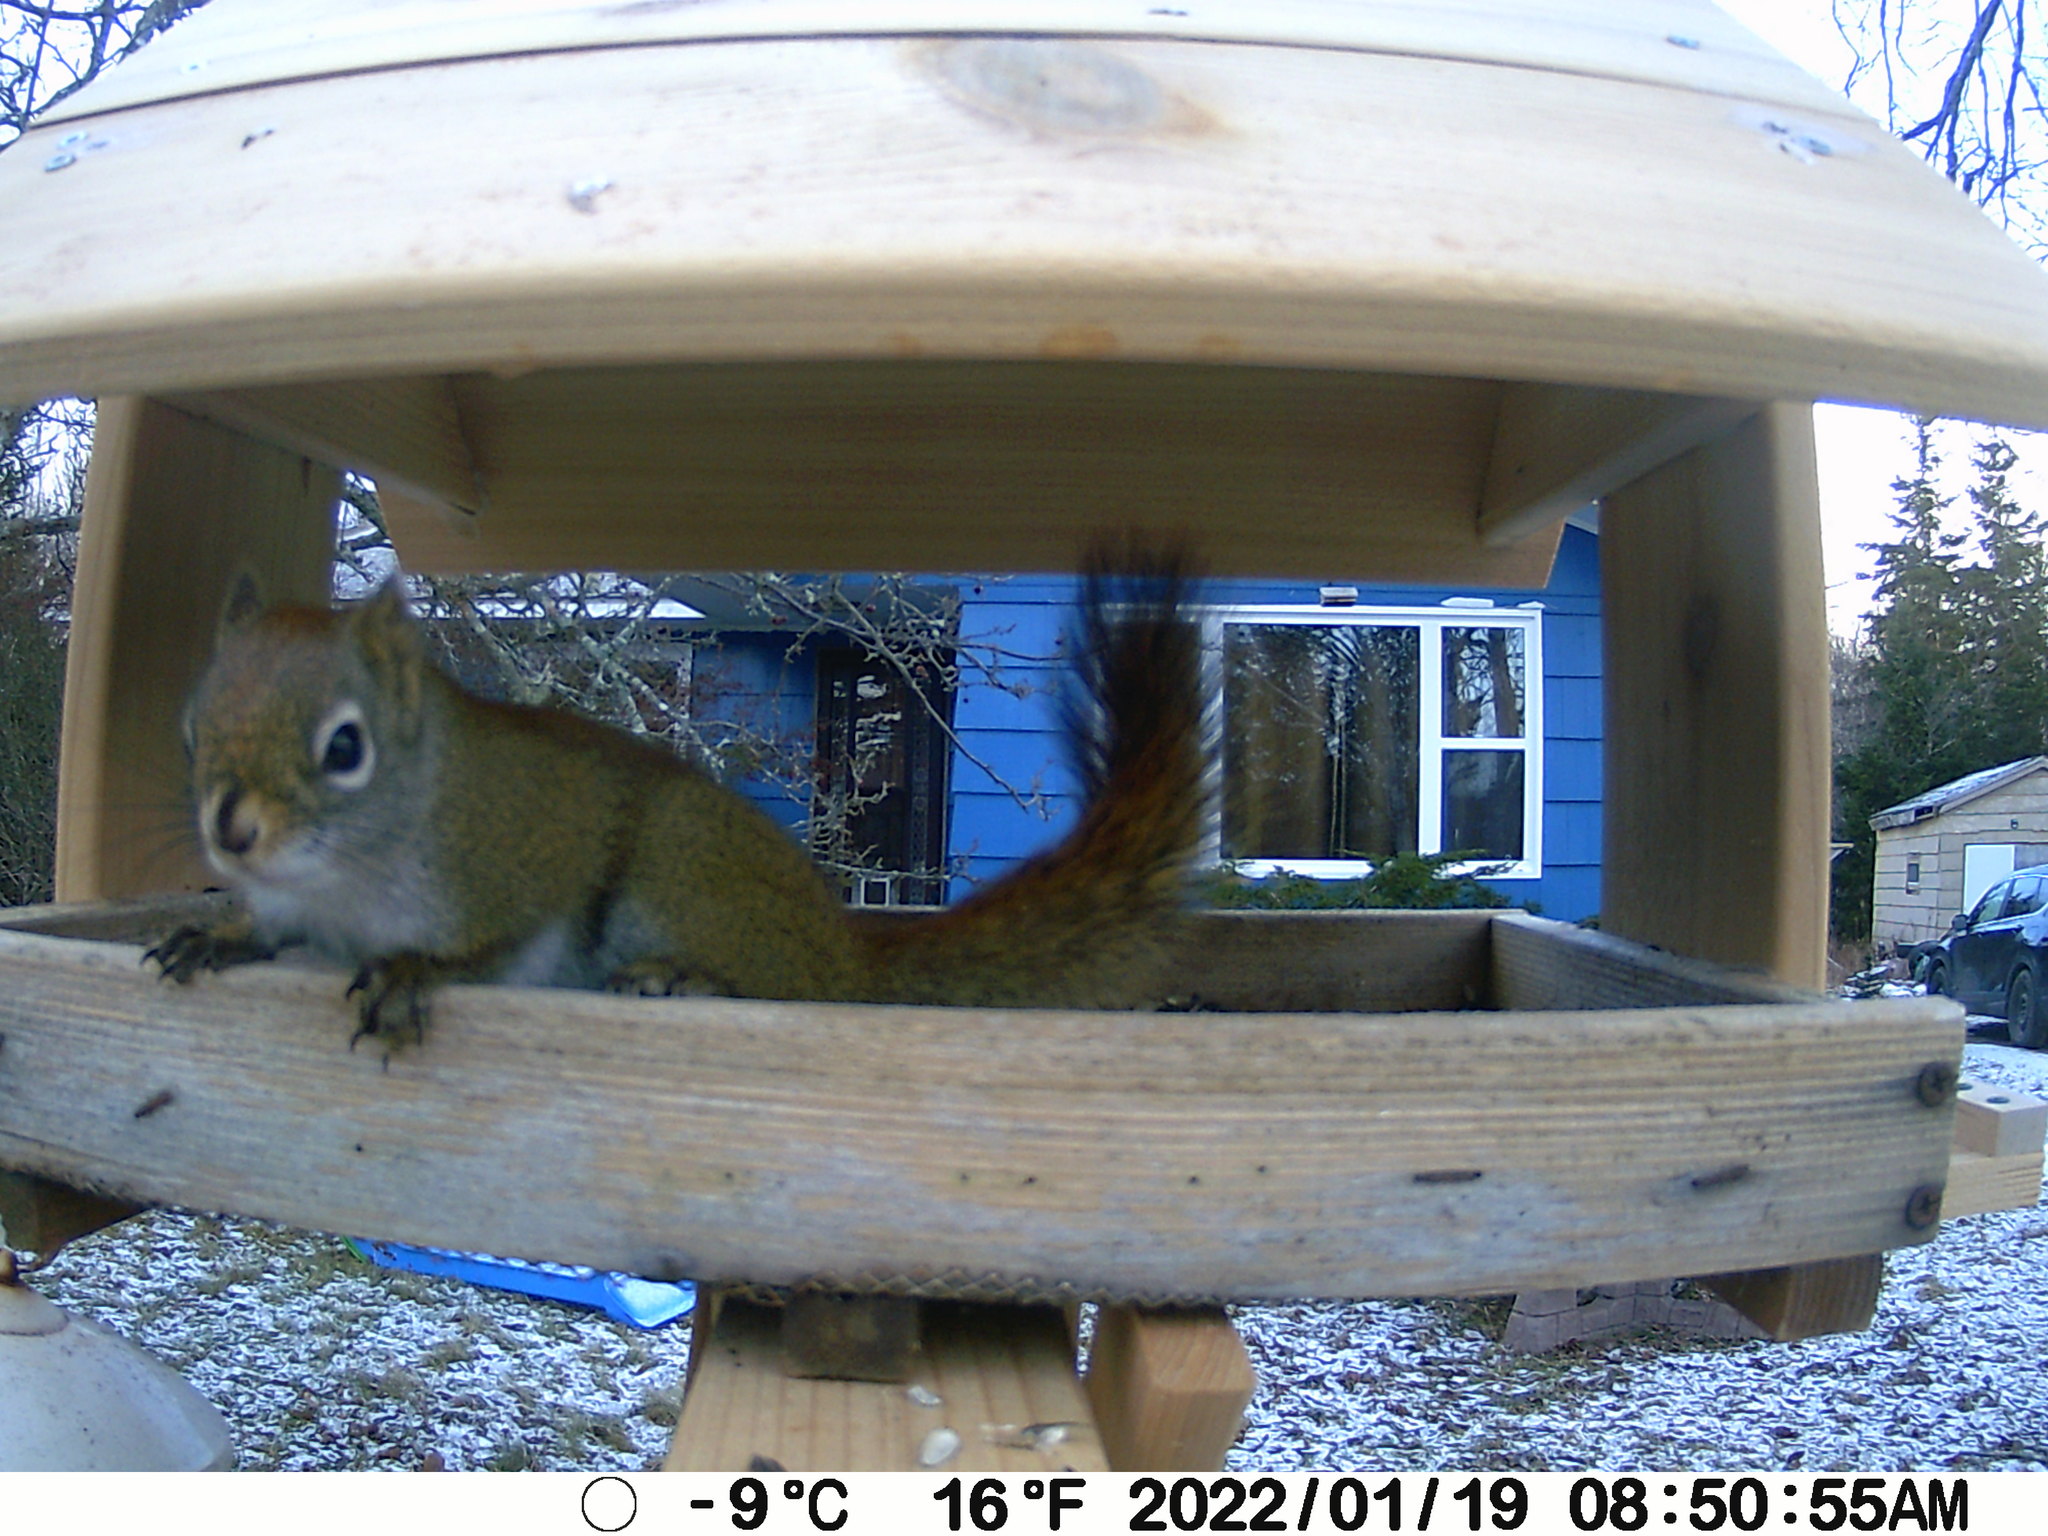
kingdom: Animalia
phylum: Chordata
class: Mammalia
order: Rodentia
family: Sciuridae
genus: Tamiasciurus
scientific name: Tamiasciurus hudsonicus
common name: Red squirrel
